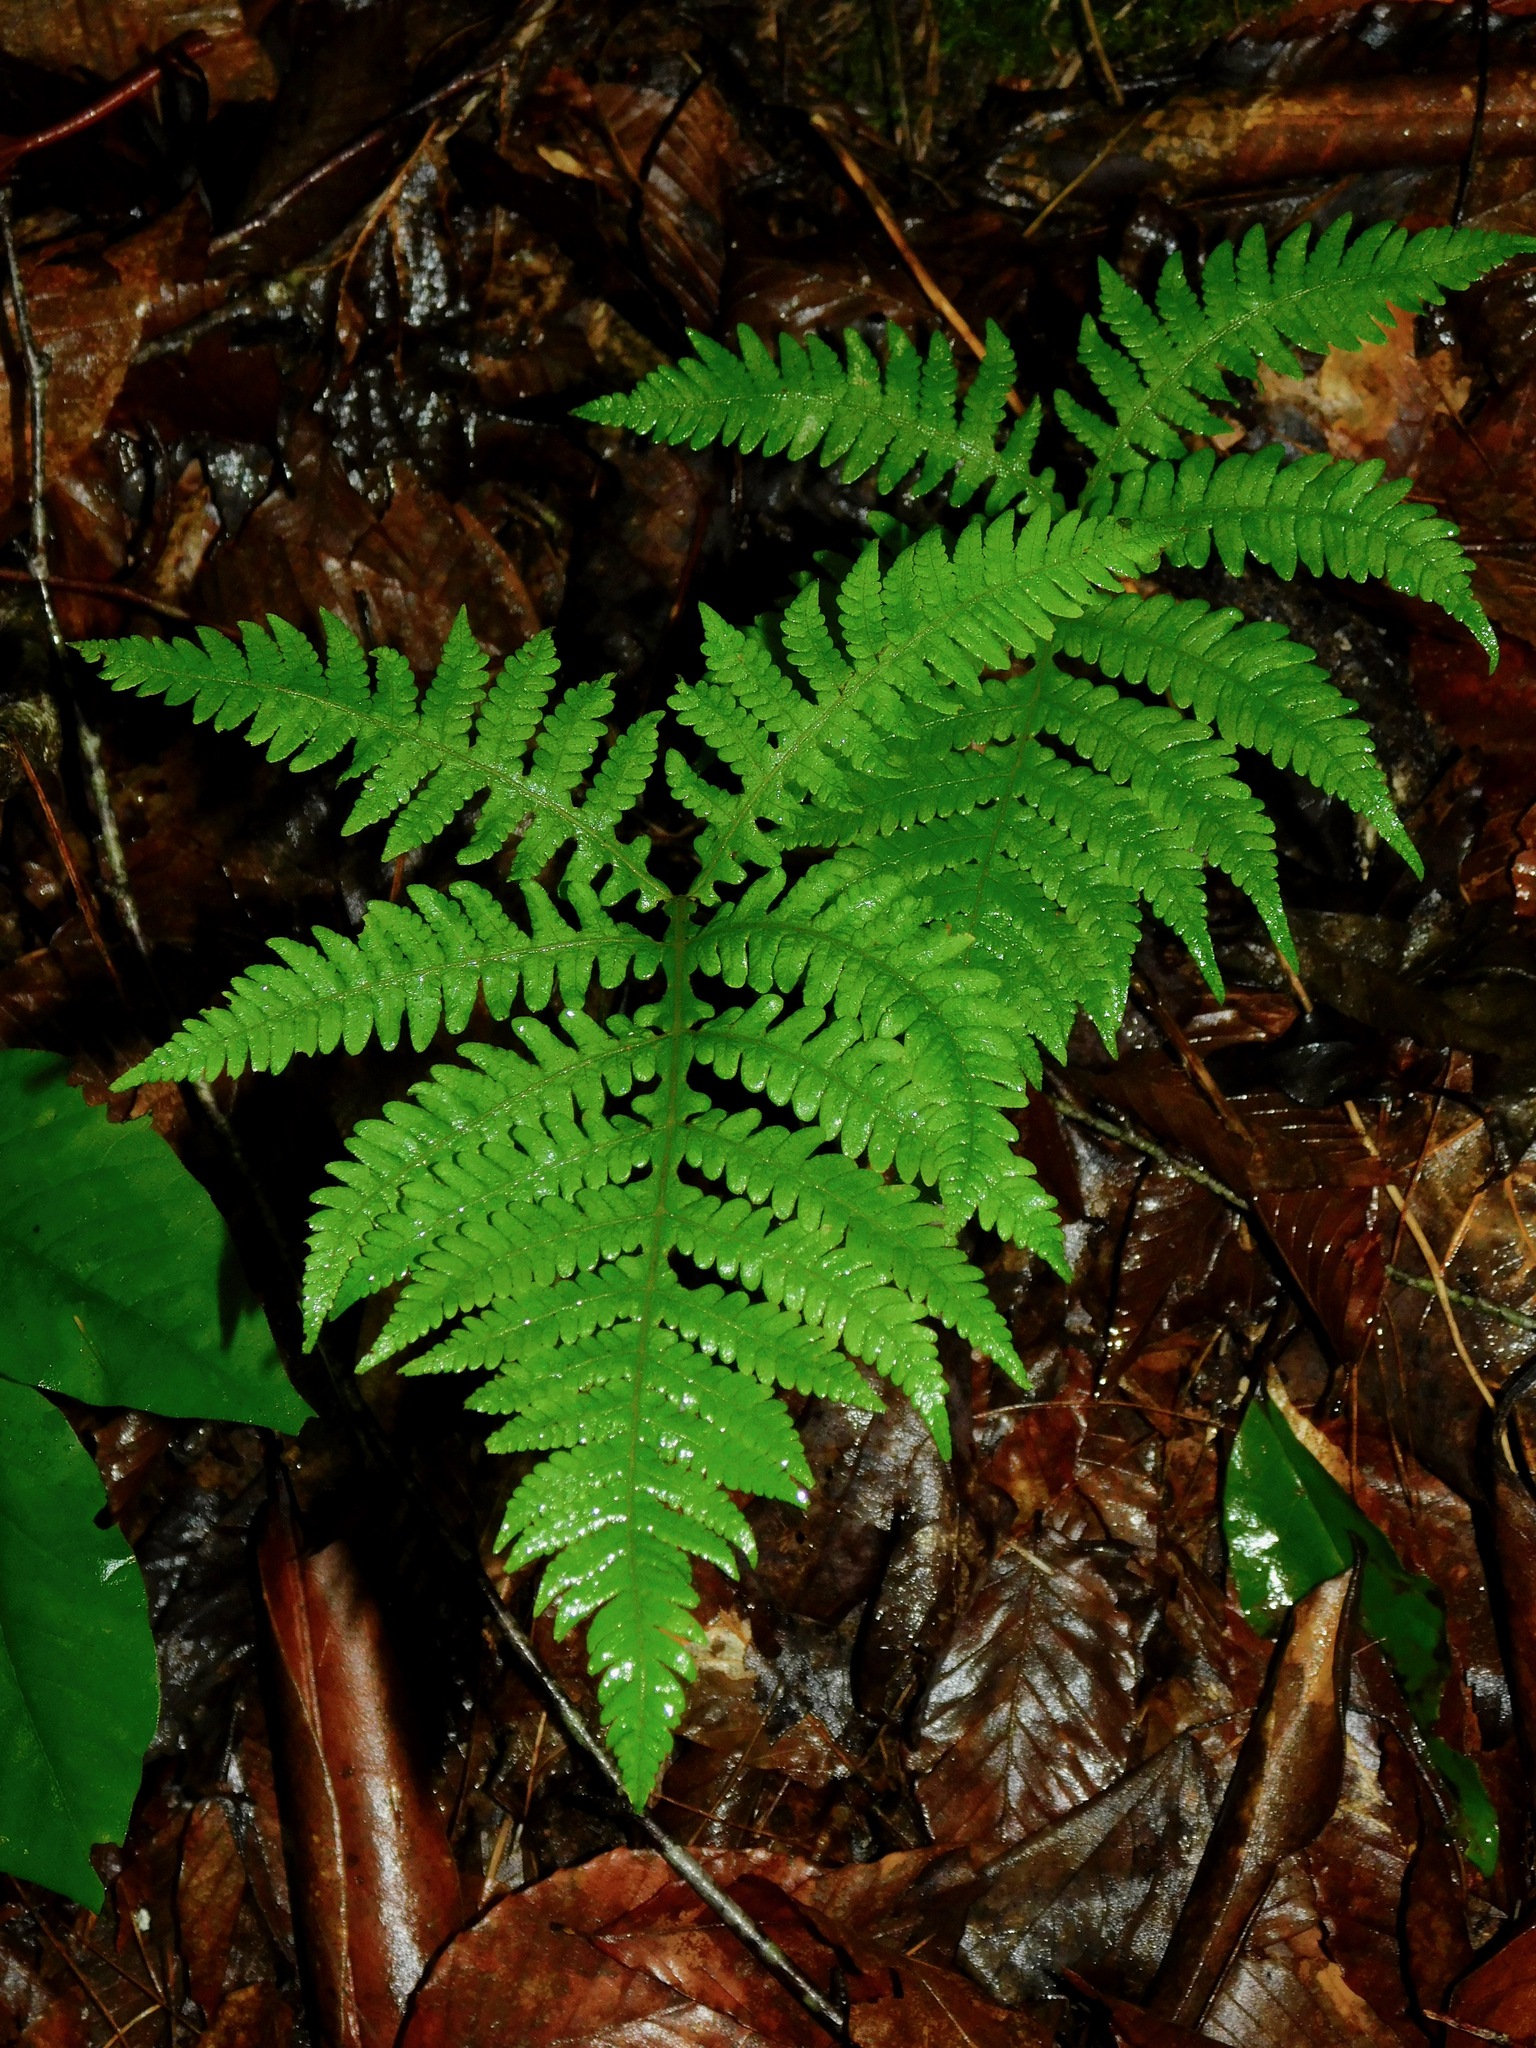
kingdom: Plantae
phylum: Tracheophyta
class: Polypodiopsida
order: Polypodiales
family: Thelypteridaceae
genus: Phegopteris
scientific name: Phegopteris hexagonoptera
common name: Broad beech fern
